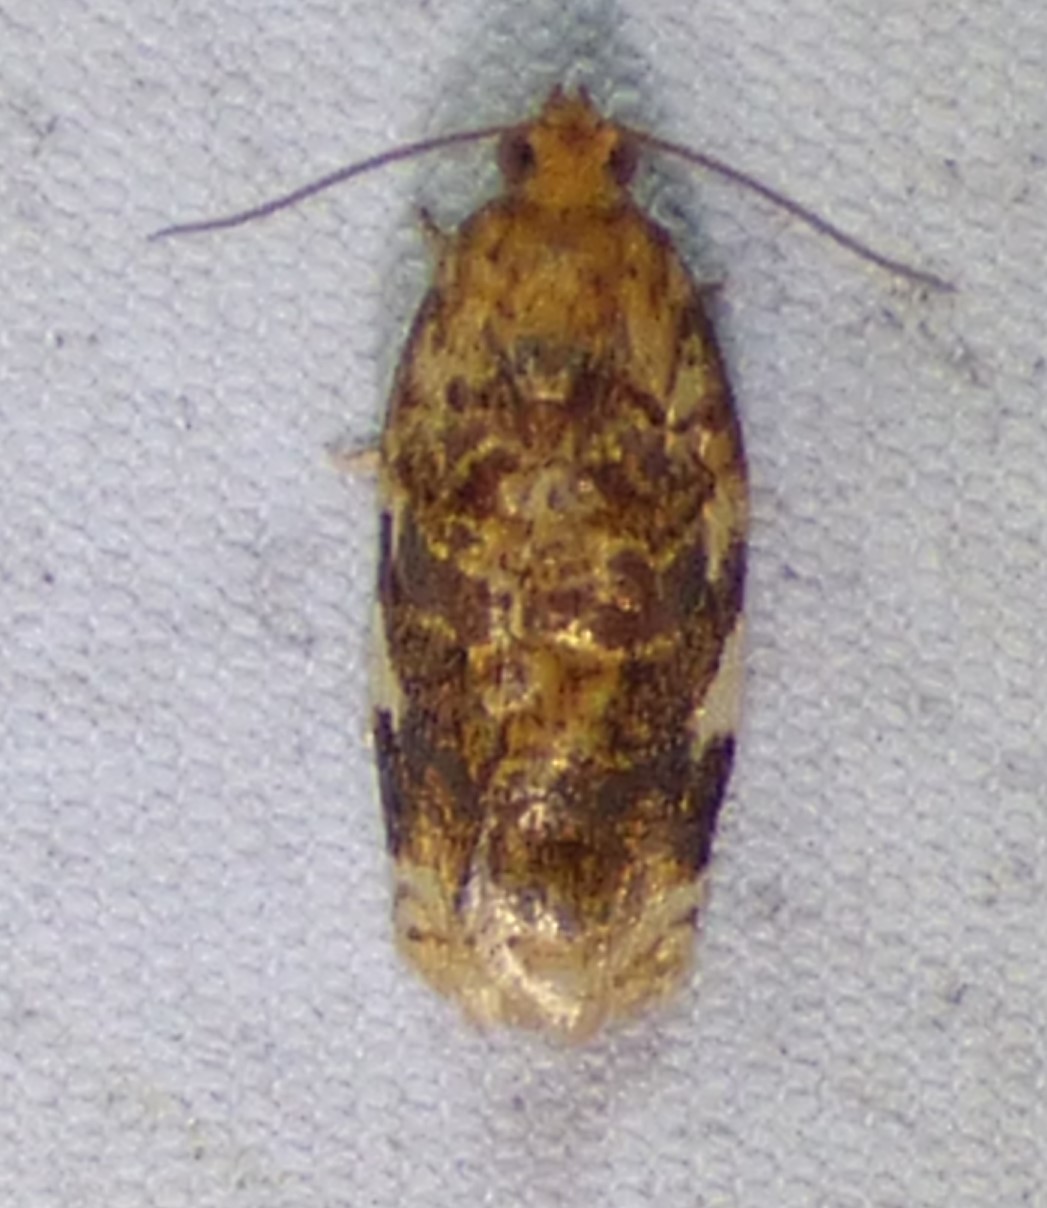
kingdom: Animalia
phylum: Arthropoda
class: Insecta
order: Lepidoptera
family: Tortricidae
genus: Archips
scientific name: Archips argyrospila
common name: Fruit-tree leafroller moth
